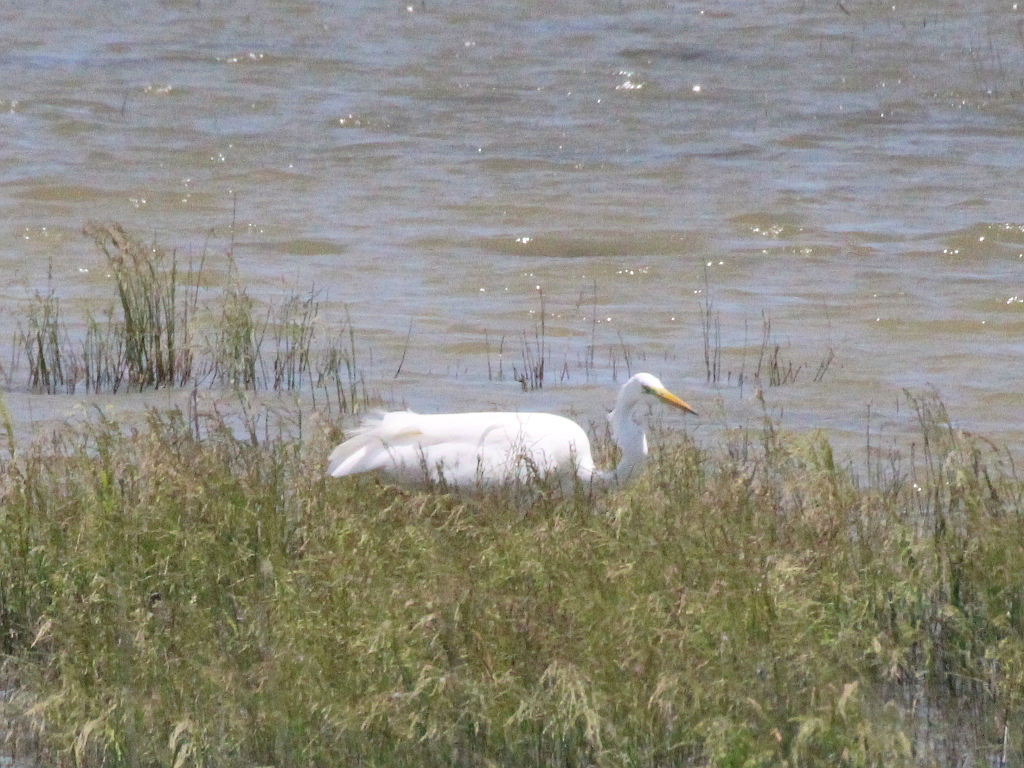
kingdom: Animalia
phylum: Chordata
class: Aves
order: Pelecaniformes
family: Ardeidae
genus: Ardea
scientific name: Ardea alba
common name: Great egret
